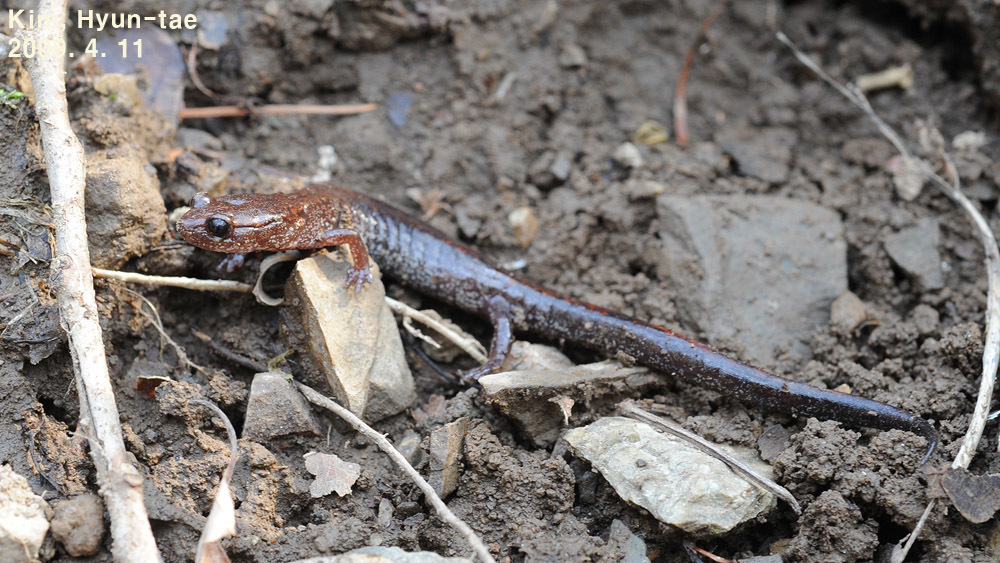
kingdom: Animalia
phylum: Chordata
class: Amphibia
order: Caudata
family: Plethodontidae
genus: Karsenia
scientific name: Karsenia koreana
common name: Korean crevice salamander
